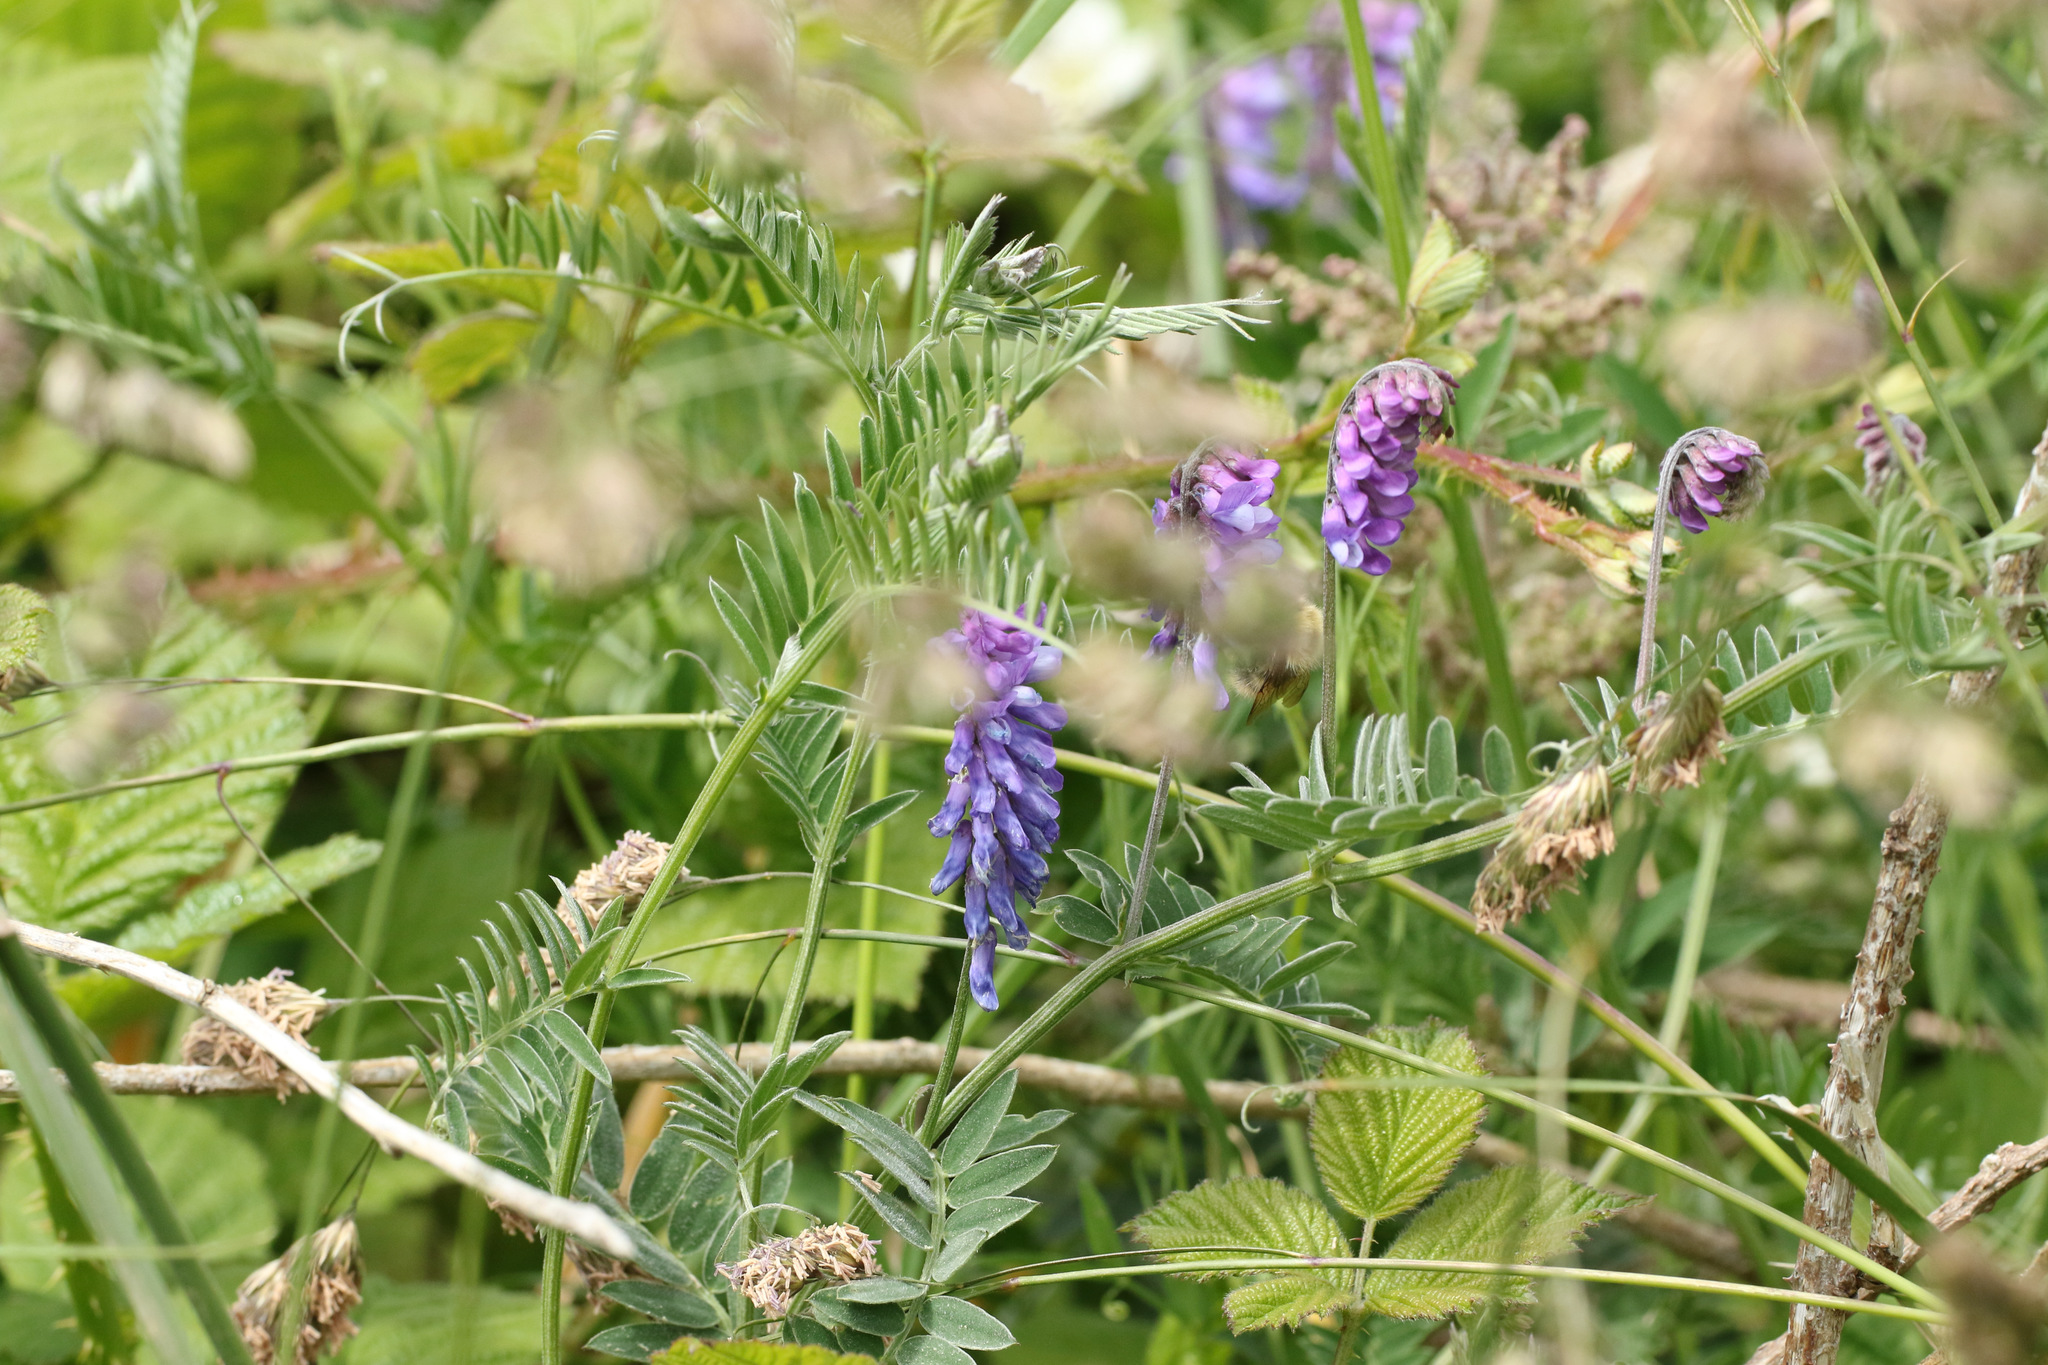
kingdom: Plantae
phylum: Tracheophyta
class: Magnoliopsida
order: Fabales
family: Fabaceae
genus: Vicia
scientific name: Vicia cracca
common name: Bird vetch
